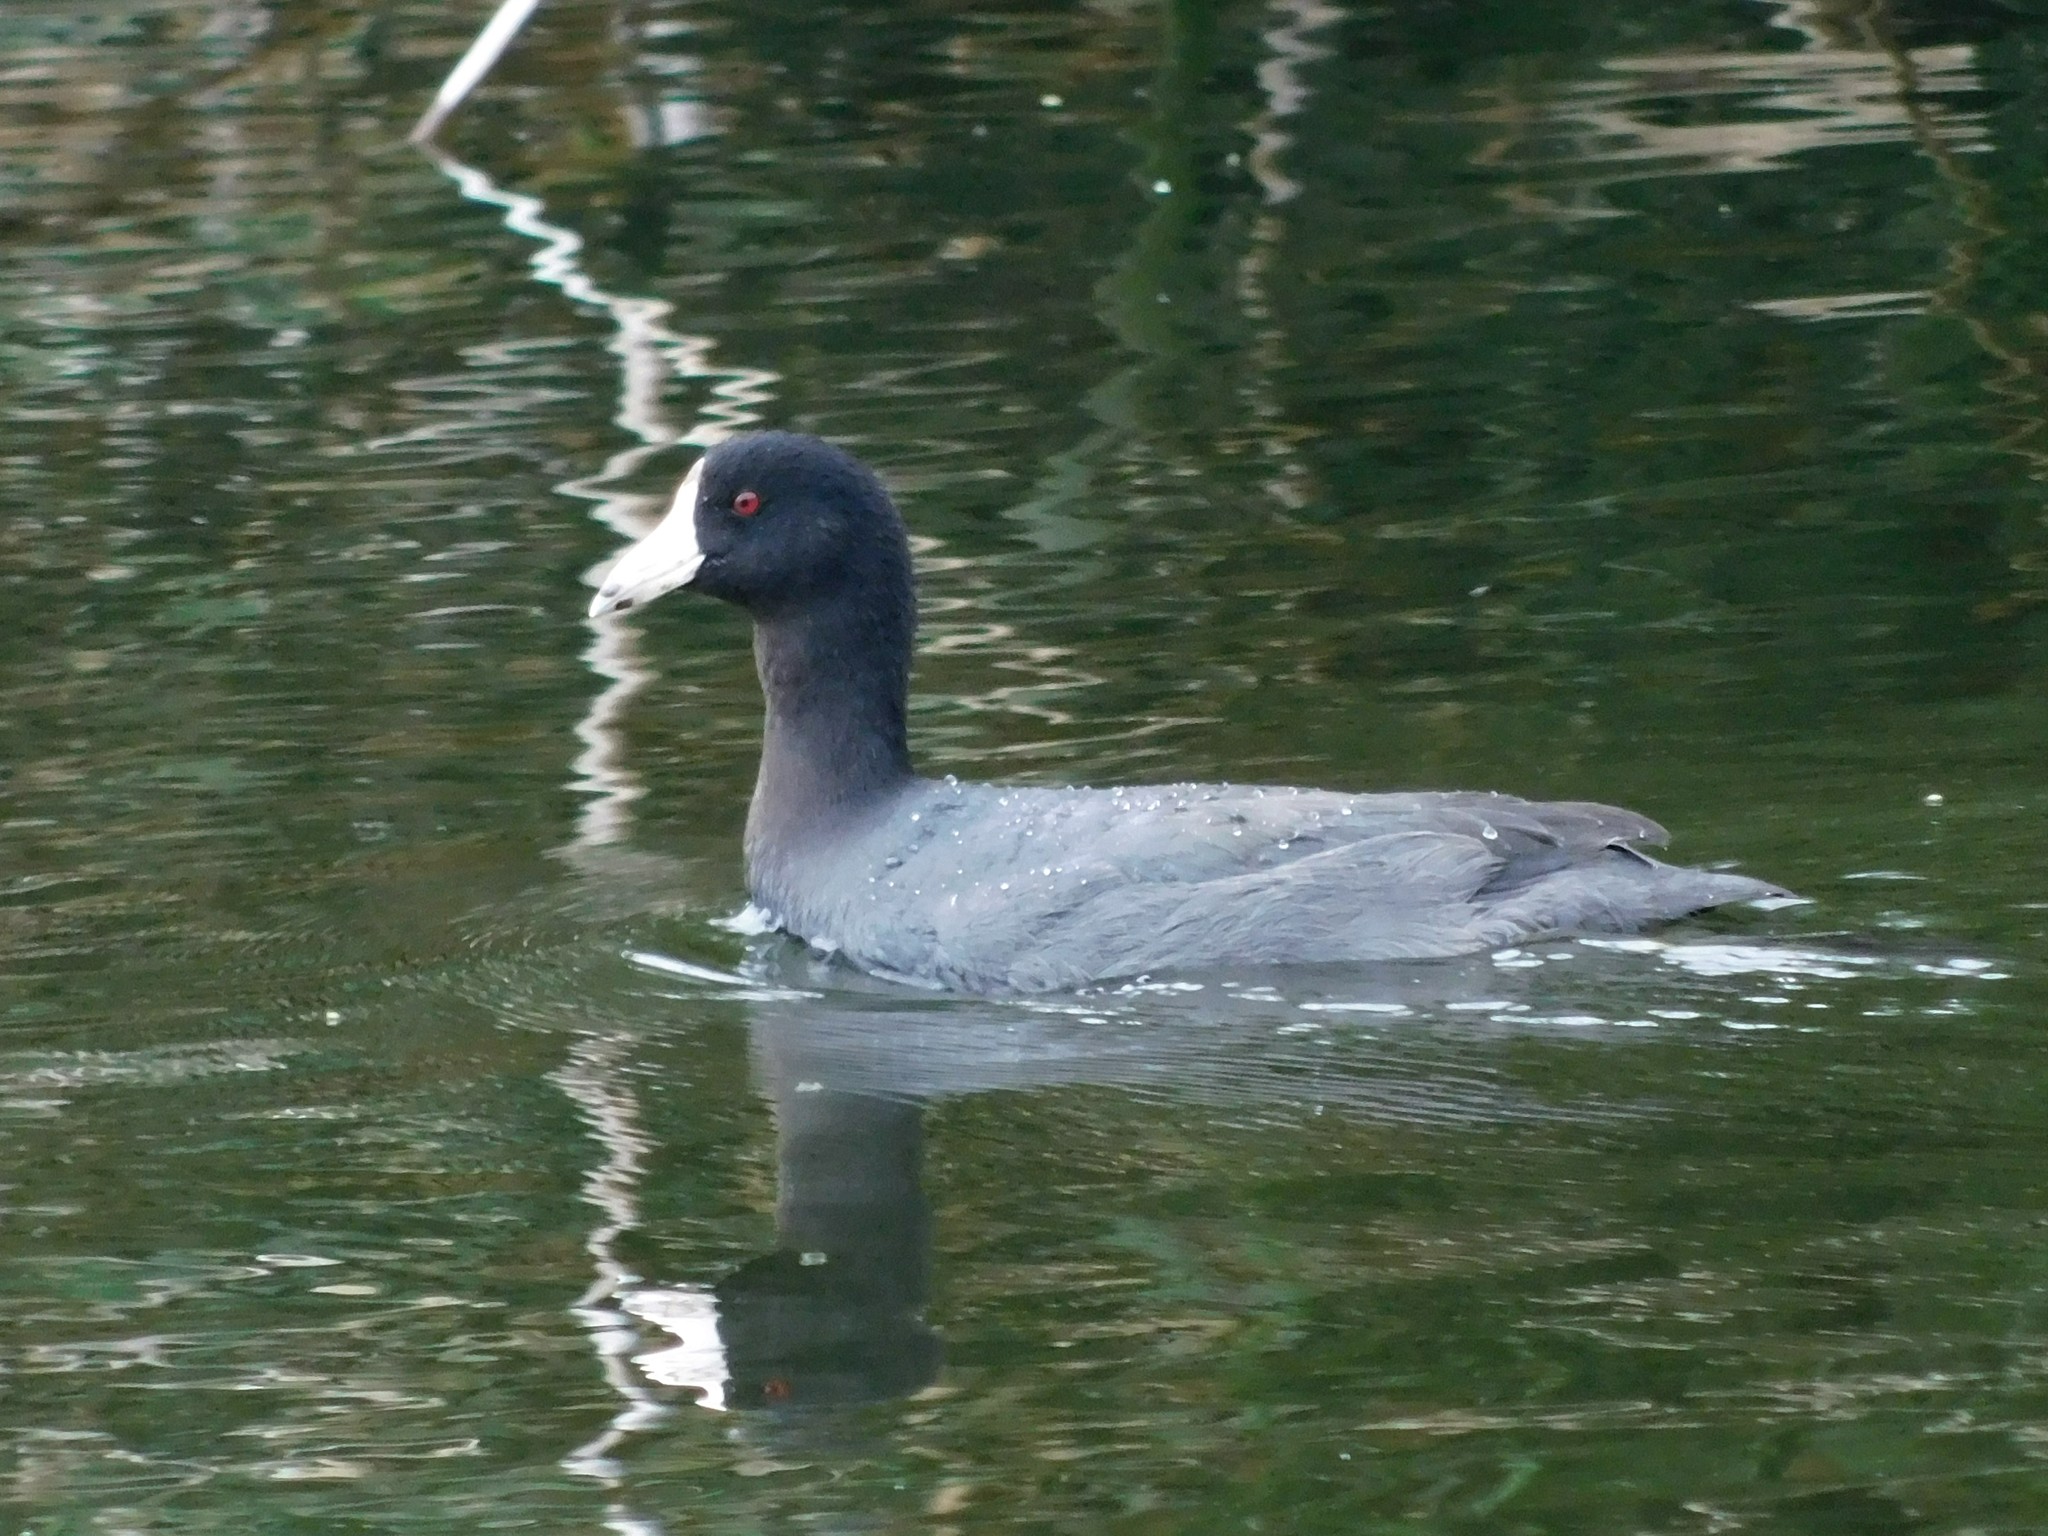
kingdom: Animalia
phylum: Chordata
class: Aves
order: Gruiformes
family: Rallidae
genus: Fulica
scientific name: Fulica americana
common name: American coot
